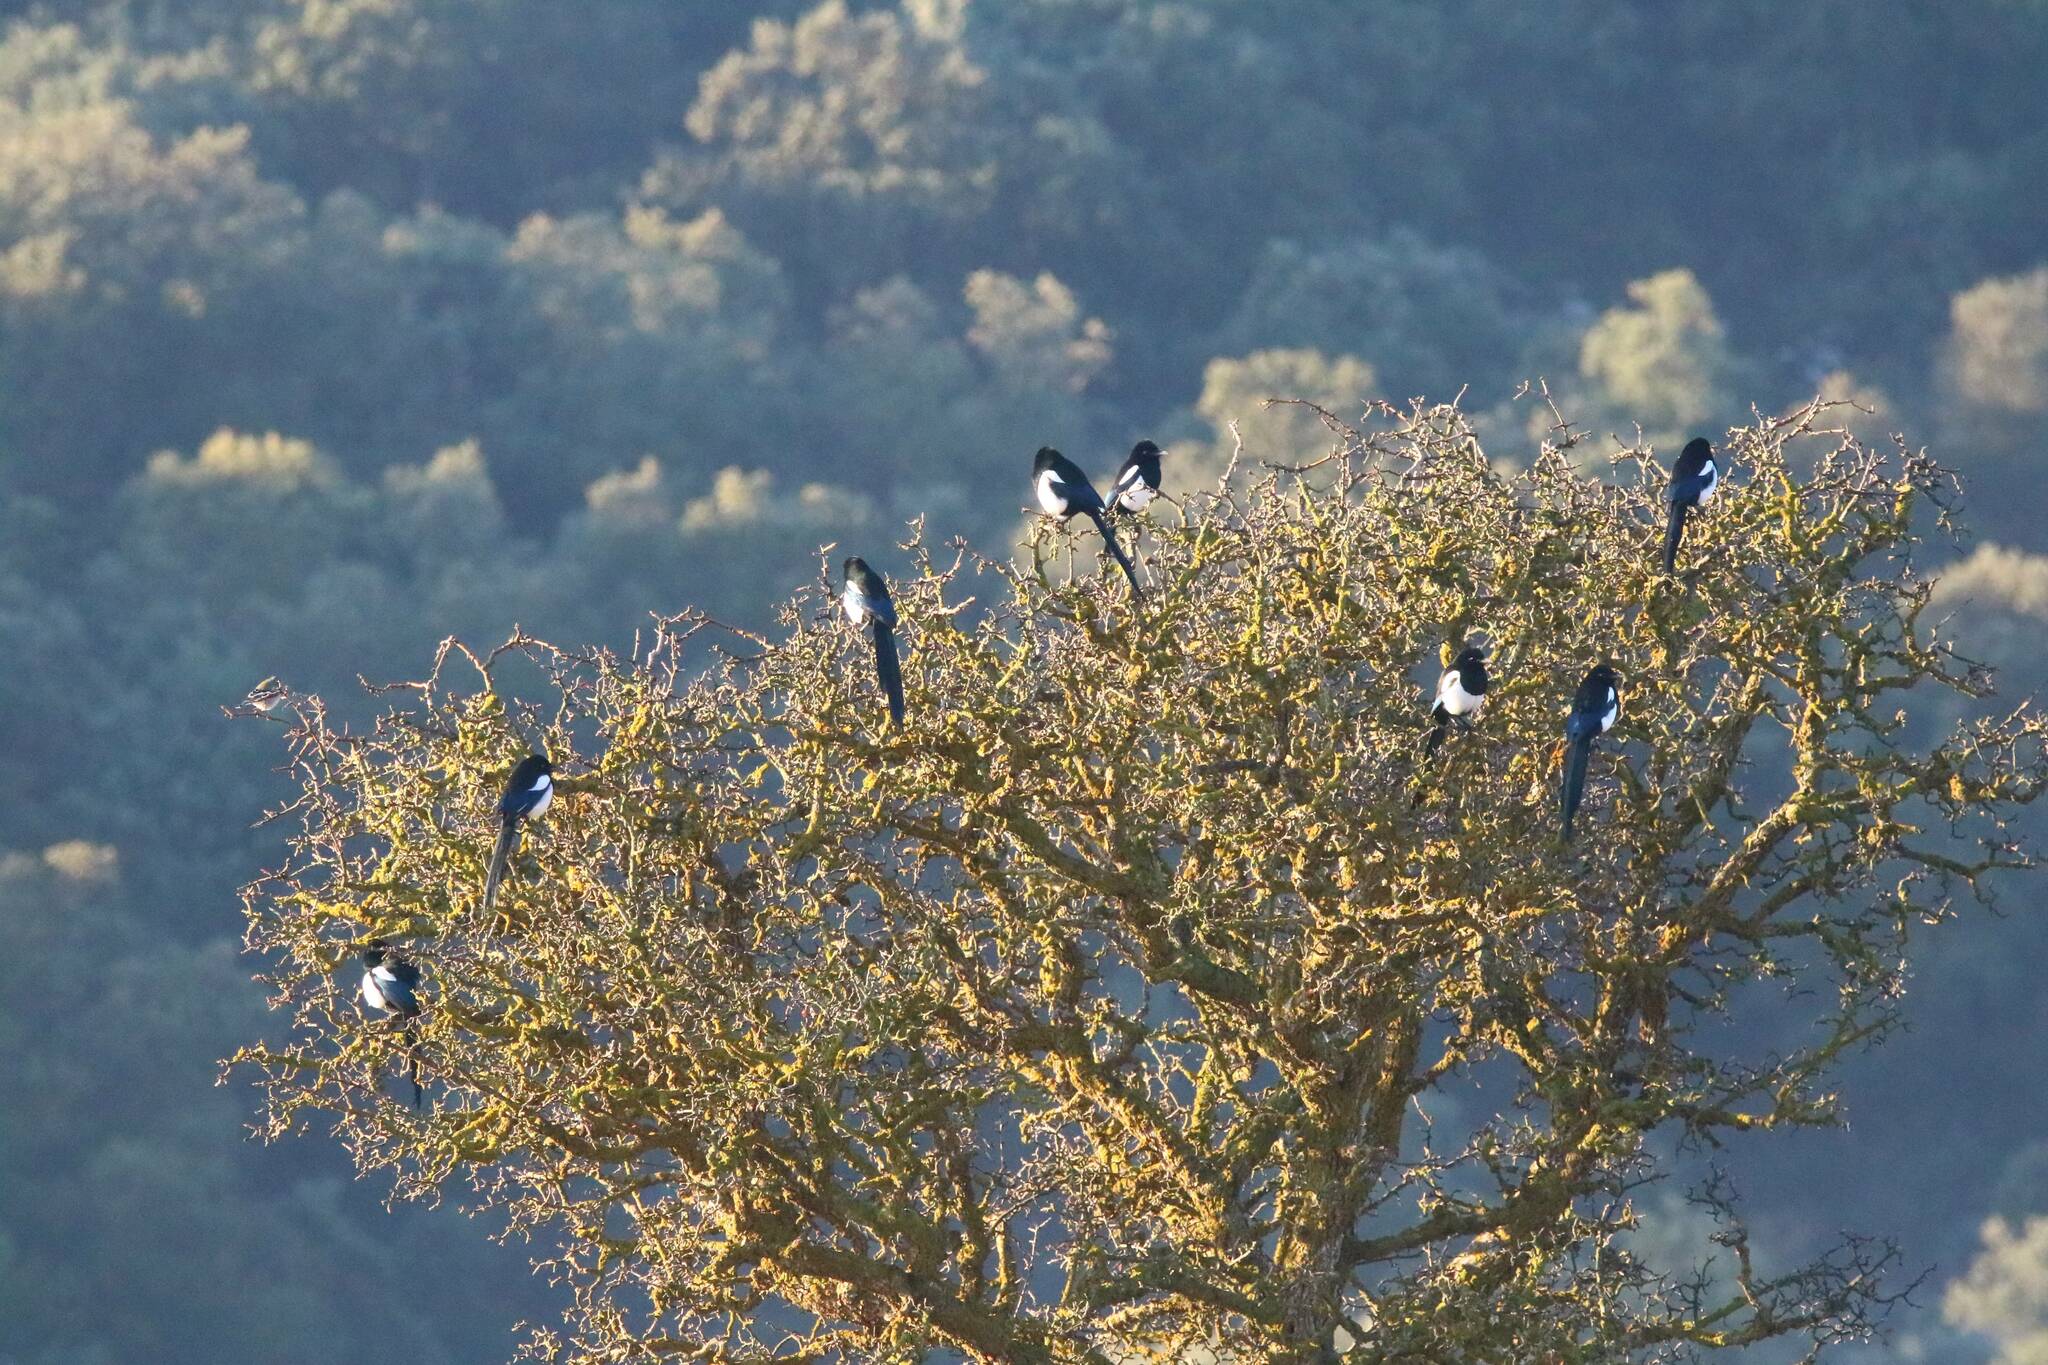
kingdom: Animalia
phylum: Chordata
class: Aves
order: Passeriformes
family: Corvidae
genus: Pica
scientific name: Pica mauritanica
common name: Maghreb magpie
